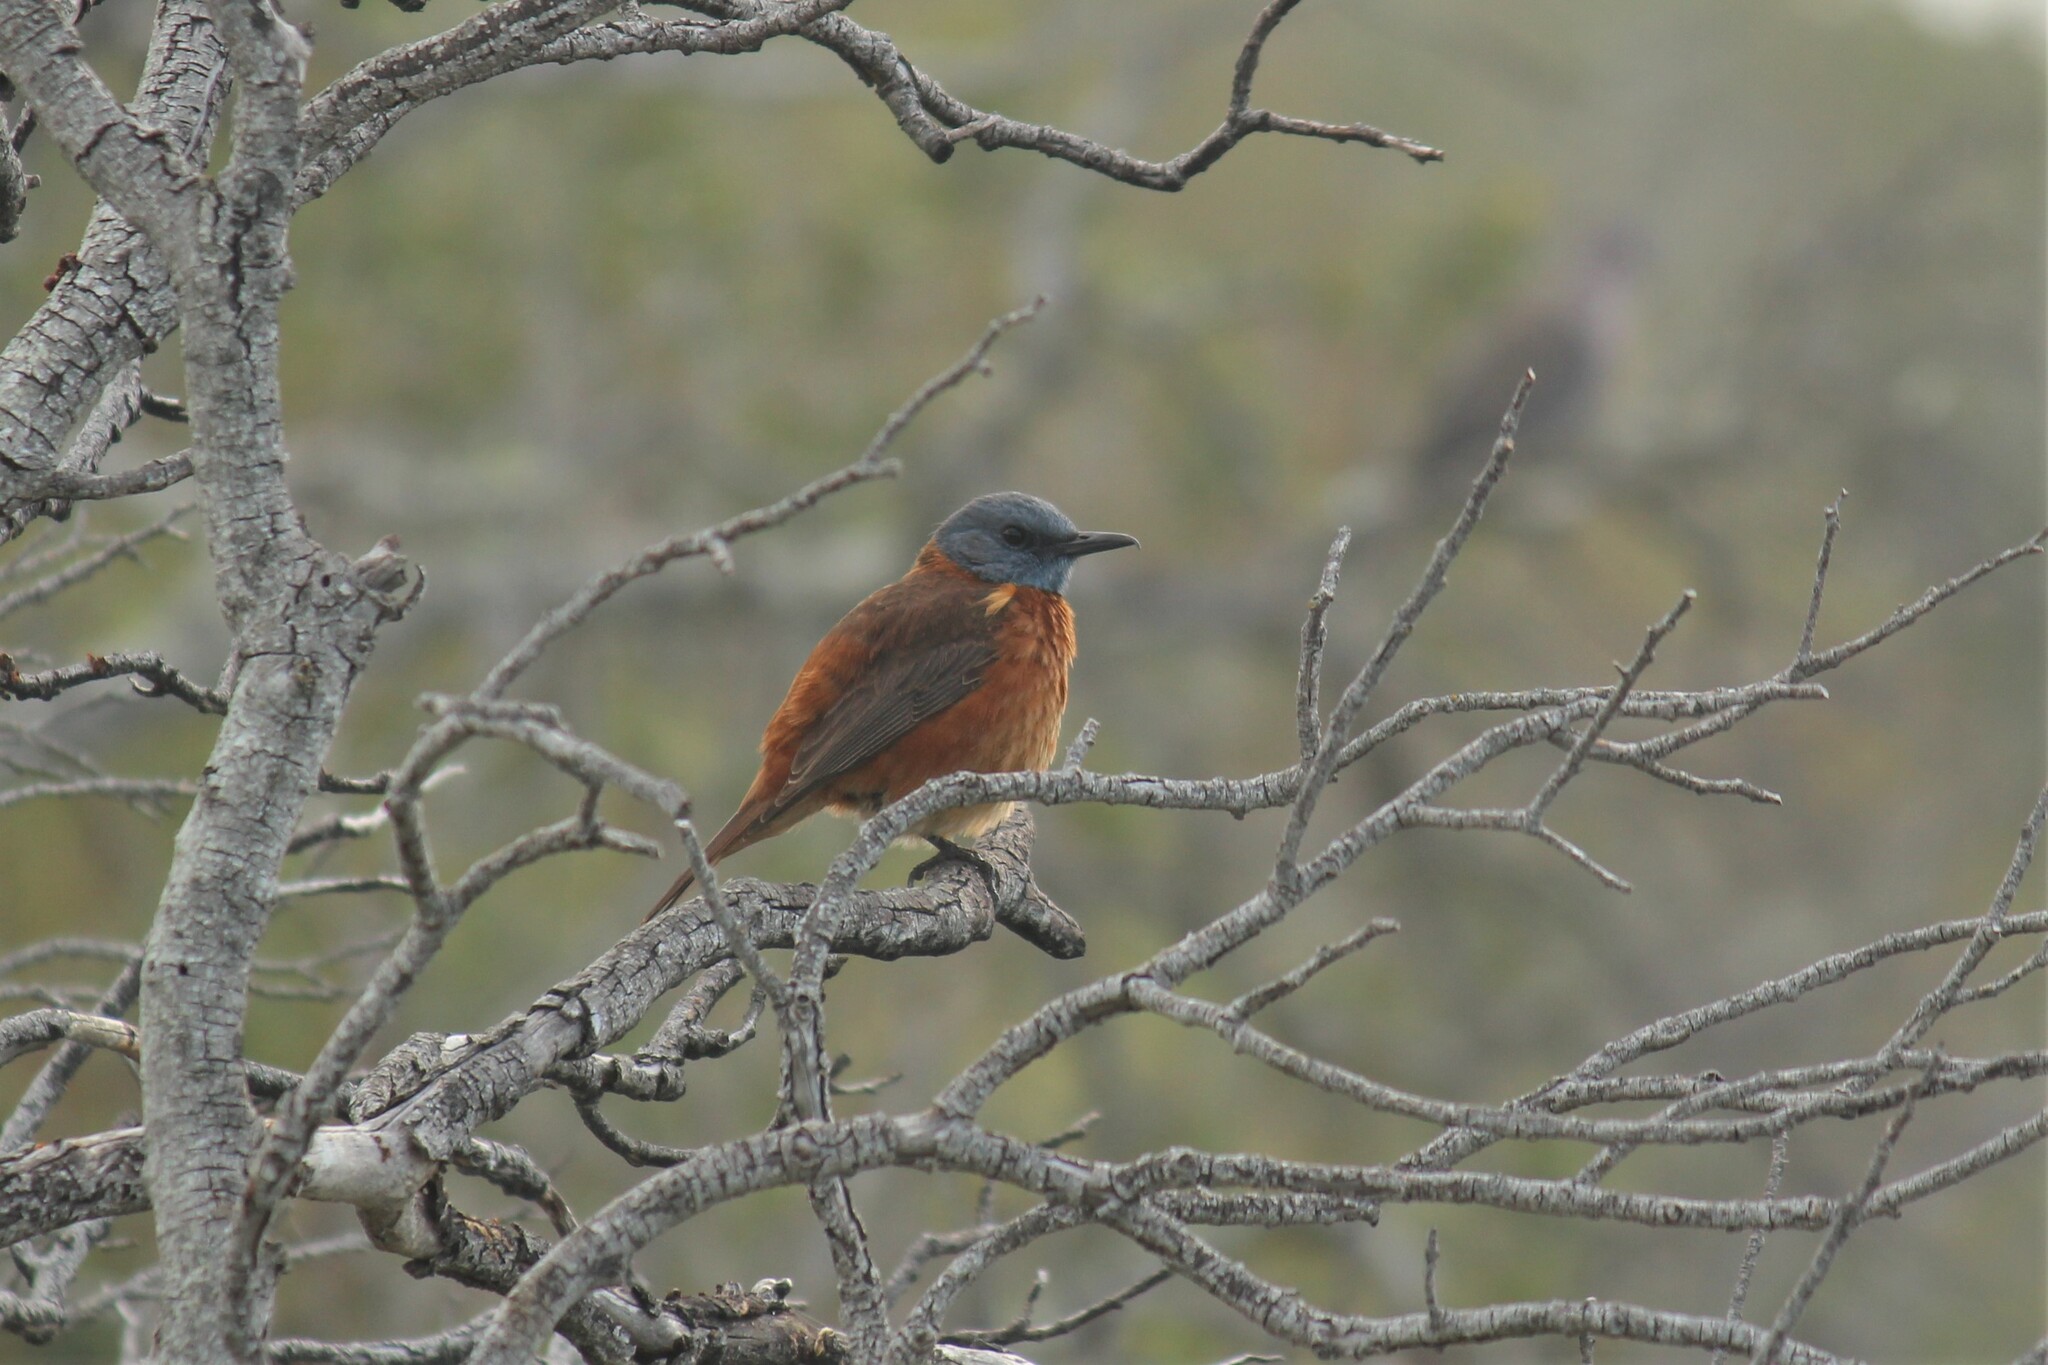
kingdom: Animalia
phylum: Chordata
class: Aves
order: Passeriformes
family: Muscicapidae
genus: Monticola
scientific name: Monticola rupestris
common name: Cape rock thrush
